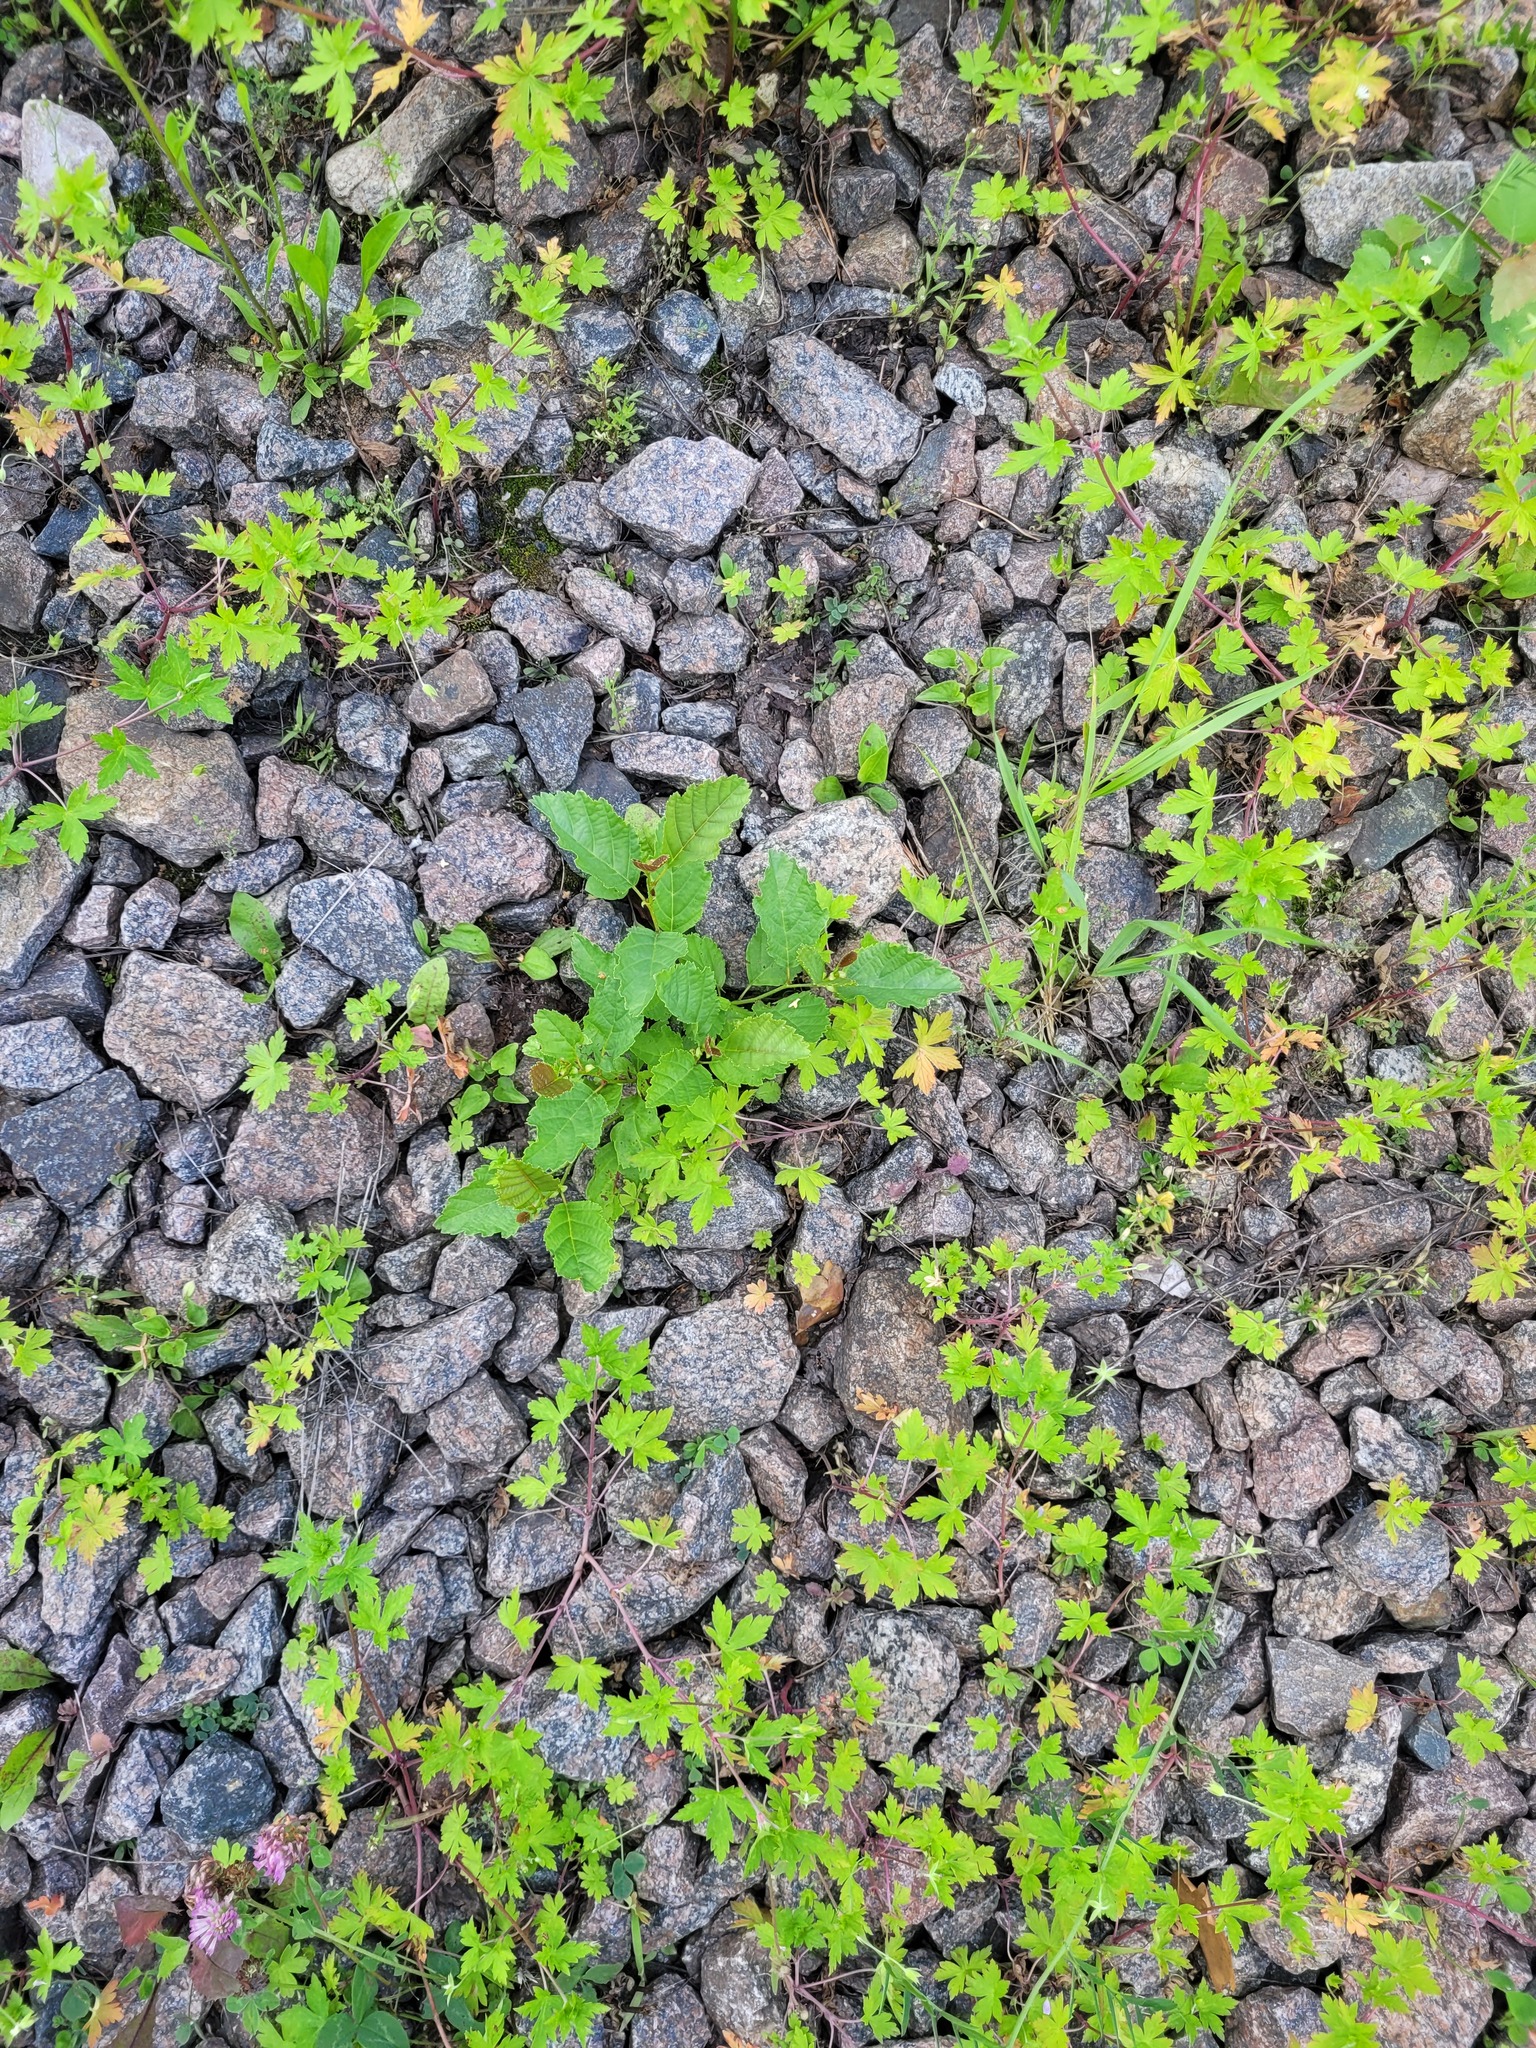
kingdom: Plantae
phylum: Tracheophyta
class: Magnoliopsida
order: Fagales
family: Betulaceae
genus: Alnus
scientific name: Alnus glutinosa
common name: Black alder
